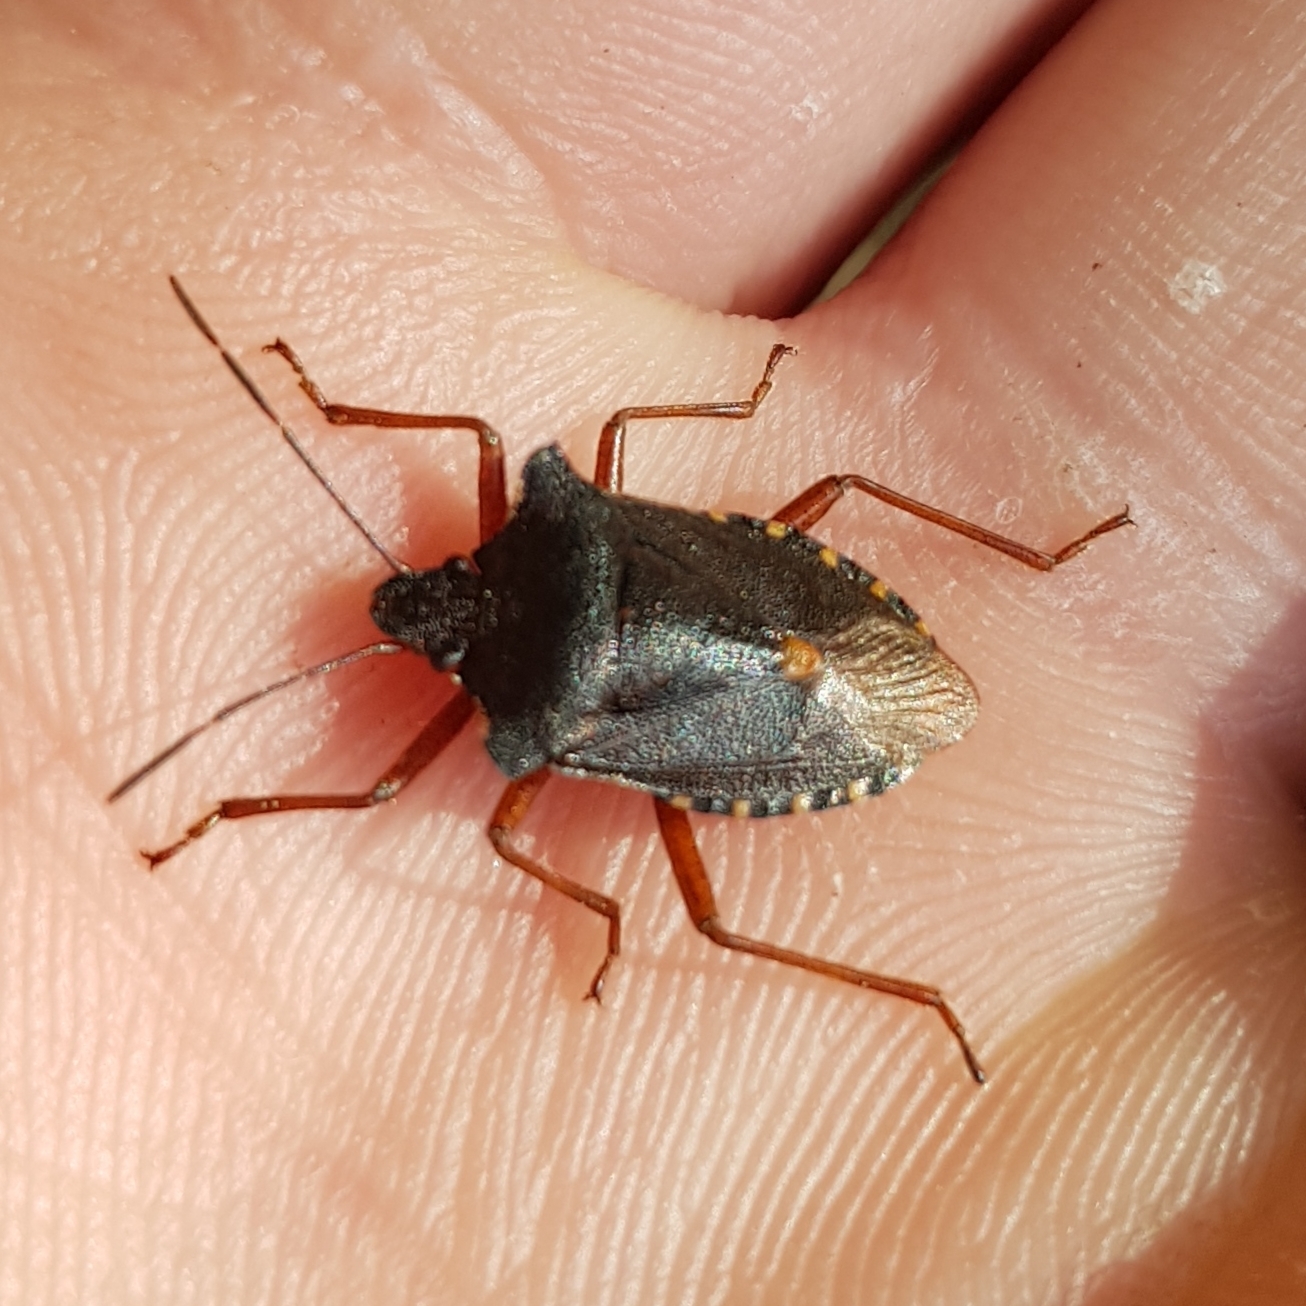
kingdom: Animalia
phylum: Arthropoda
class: Insecta
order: Hemiptera
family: Pentatomidae
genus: Pentatoma
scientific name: Pentatoma rufipes
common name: Forest bug
